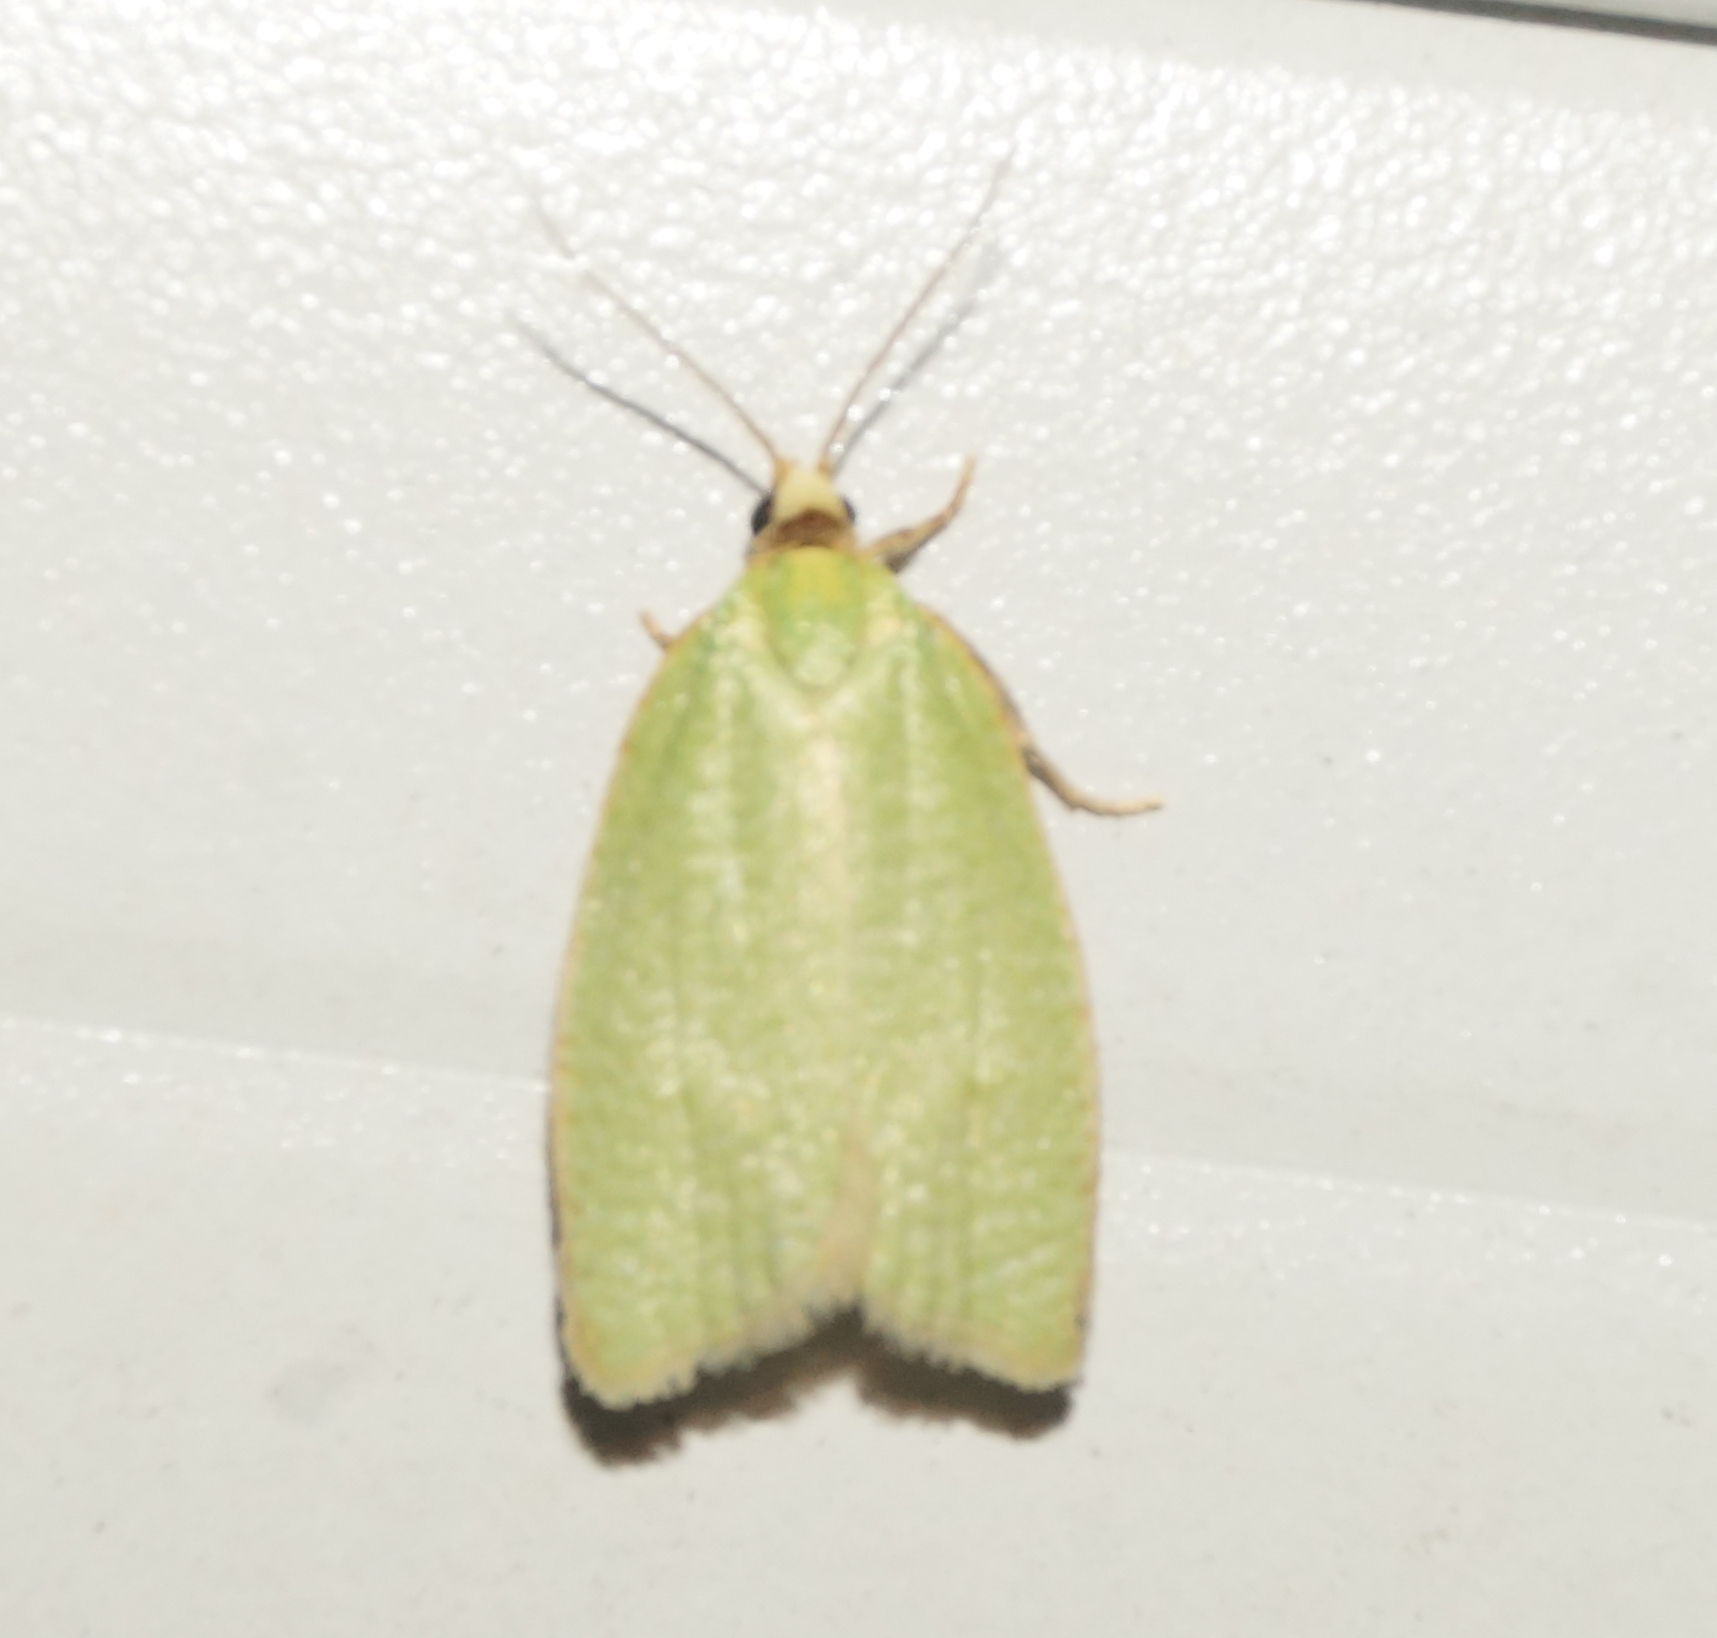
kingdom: Animalia
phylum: Arthropoda
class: Insecta
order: Lepidoptera
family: Tortricidae
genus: Tortrix
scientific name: Tortrix viridana
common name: Green oak tortrix
